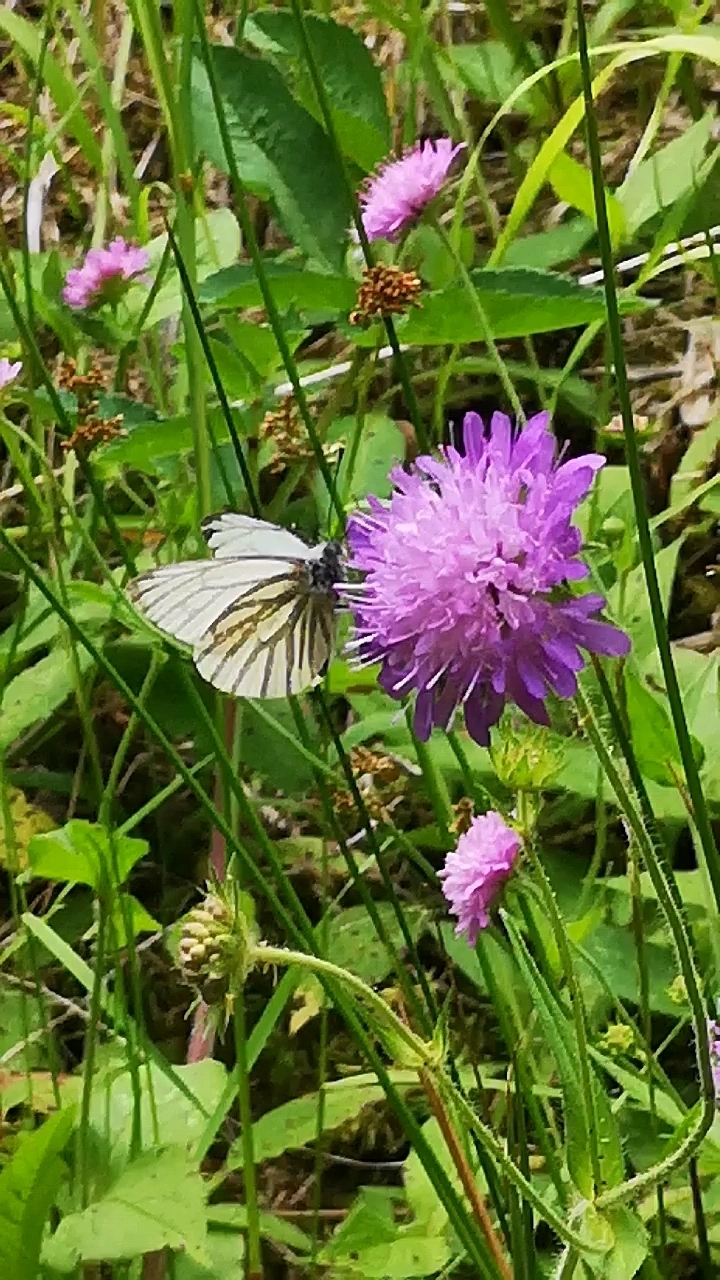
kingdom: Animalia
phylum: Arthropoda
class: Insecta
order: Lepidoptera
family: Pieridae
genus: Pieris
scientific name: Pieris napi
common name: Green-veined white
